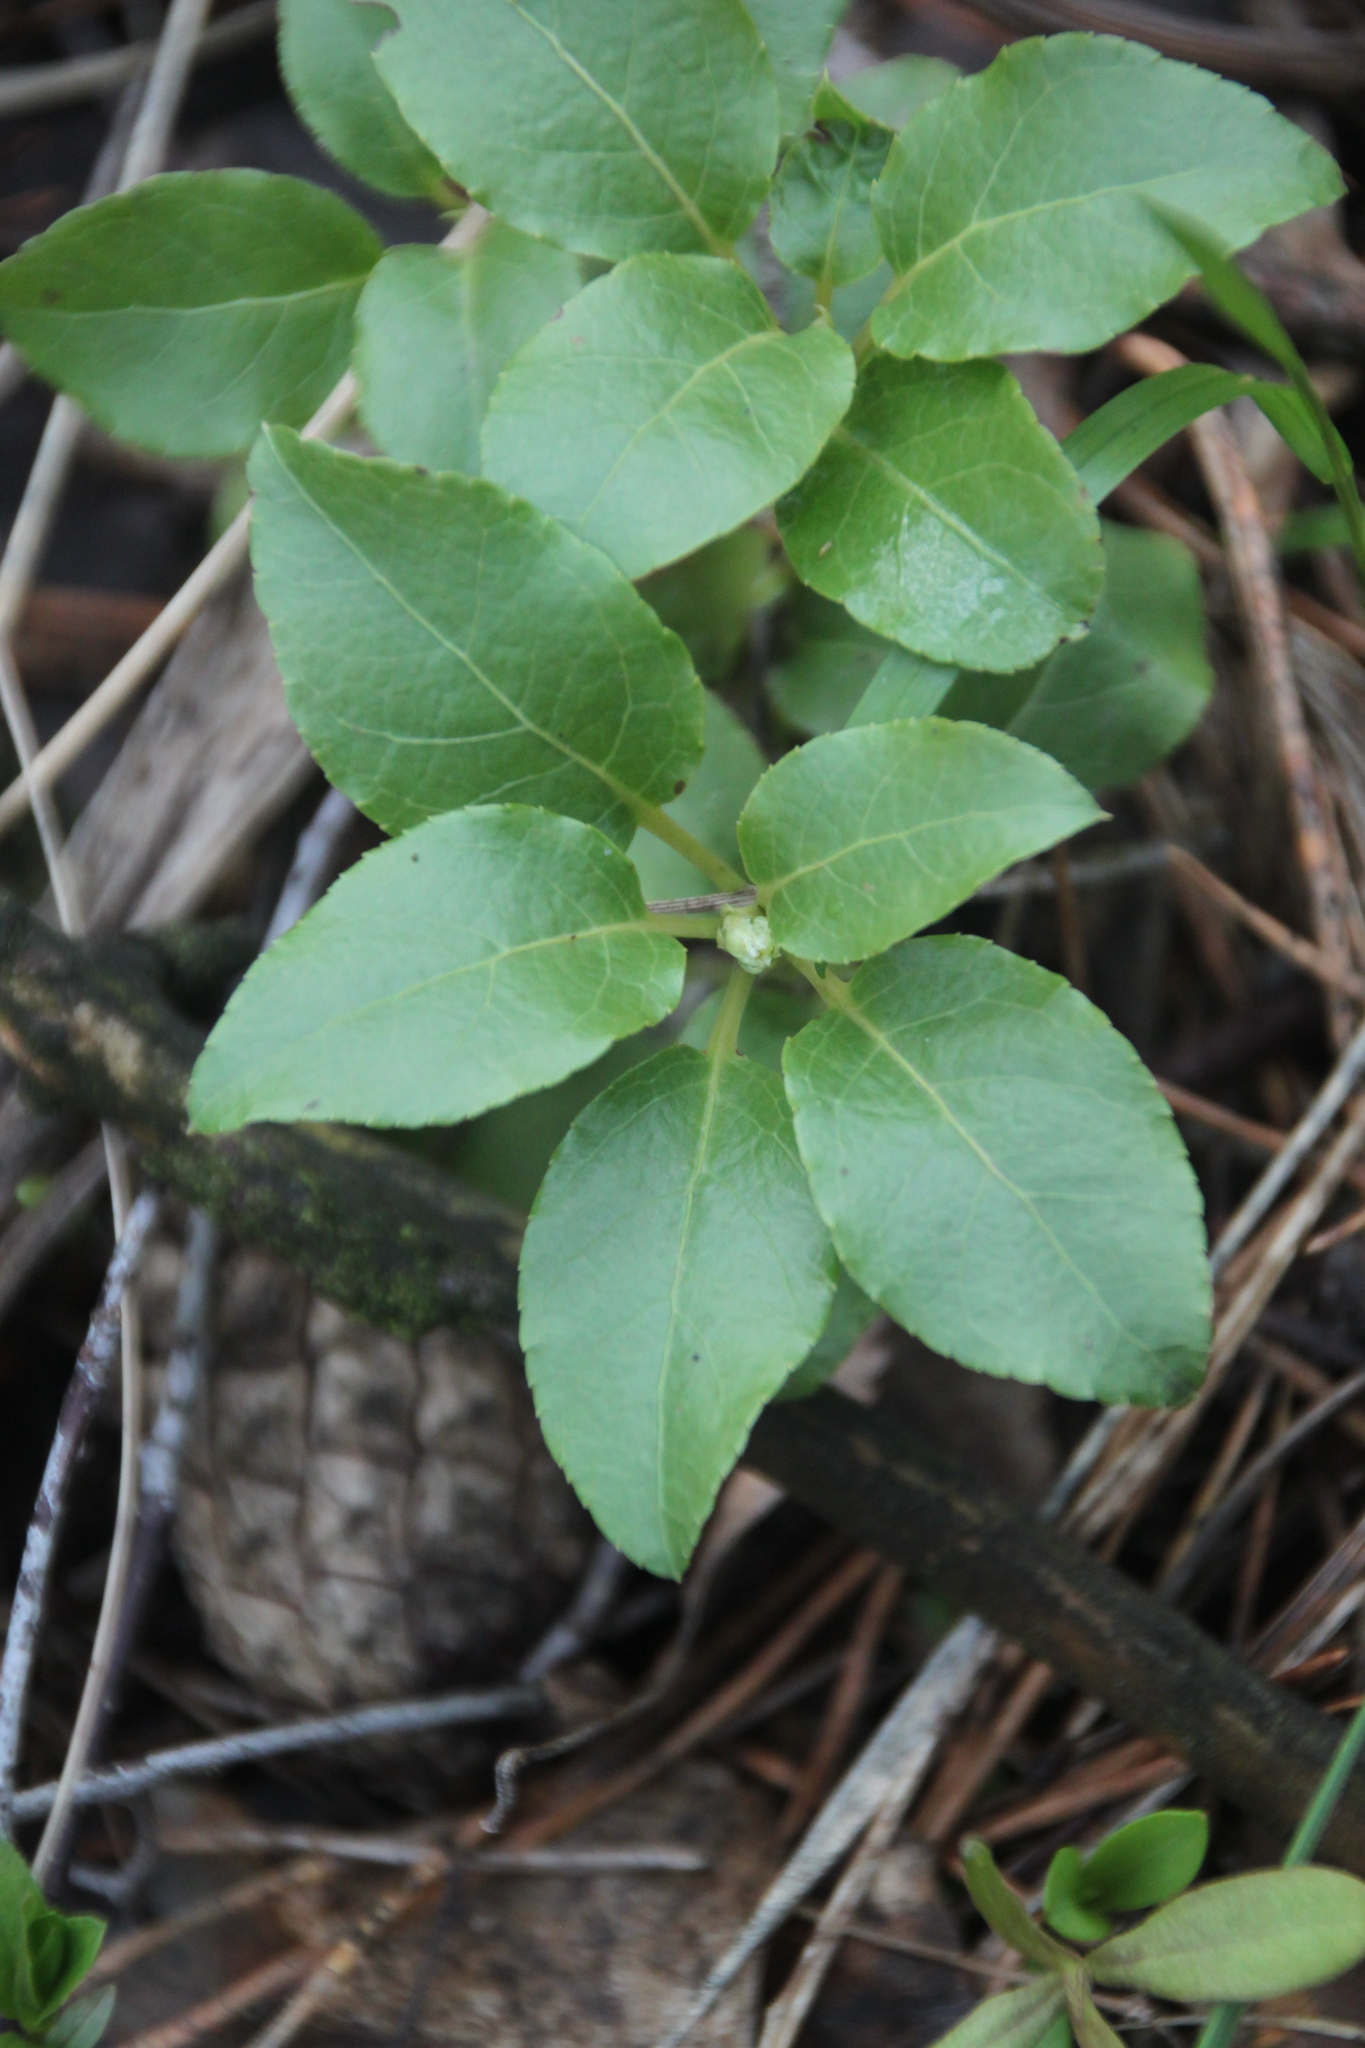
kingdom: Plantae
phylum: Tracheophyta
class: Magnoliopsida
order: Ericales
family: Ericaceae
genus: Orthilia
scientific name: Orthilia secunda
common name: One-sided orthilia
